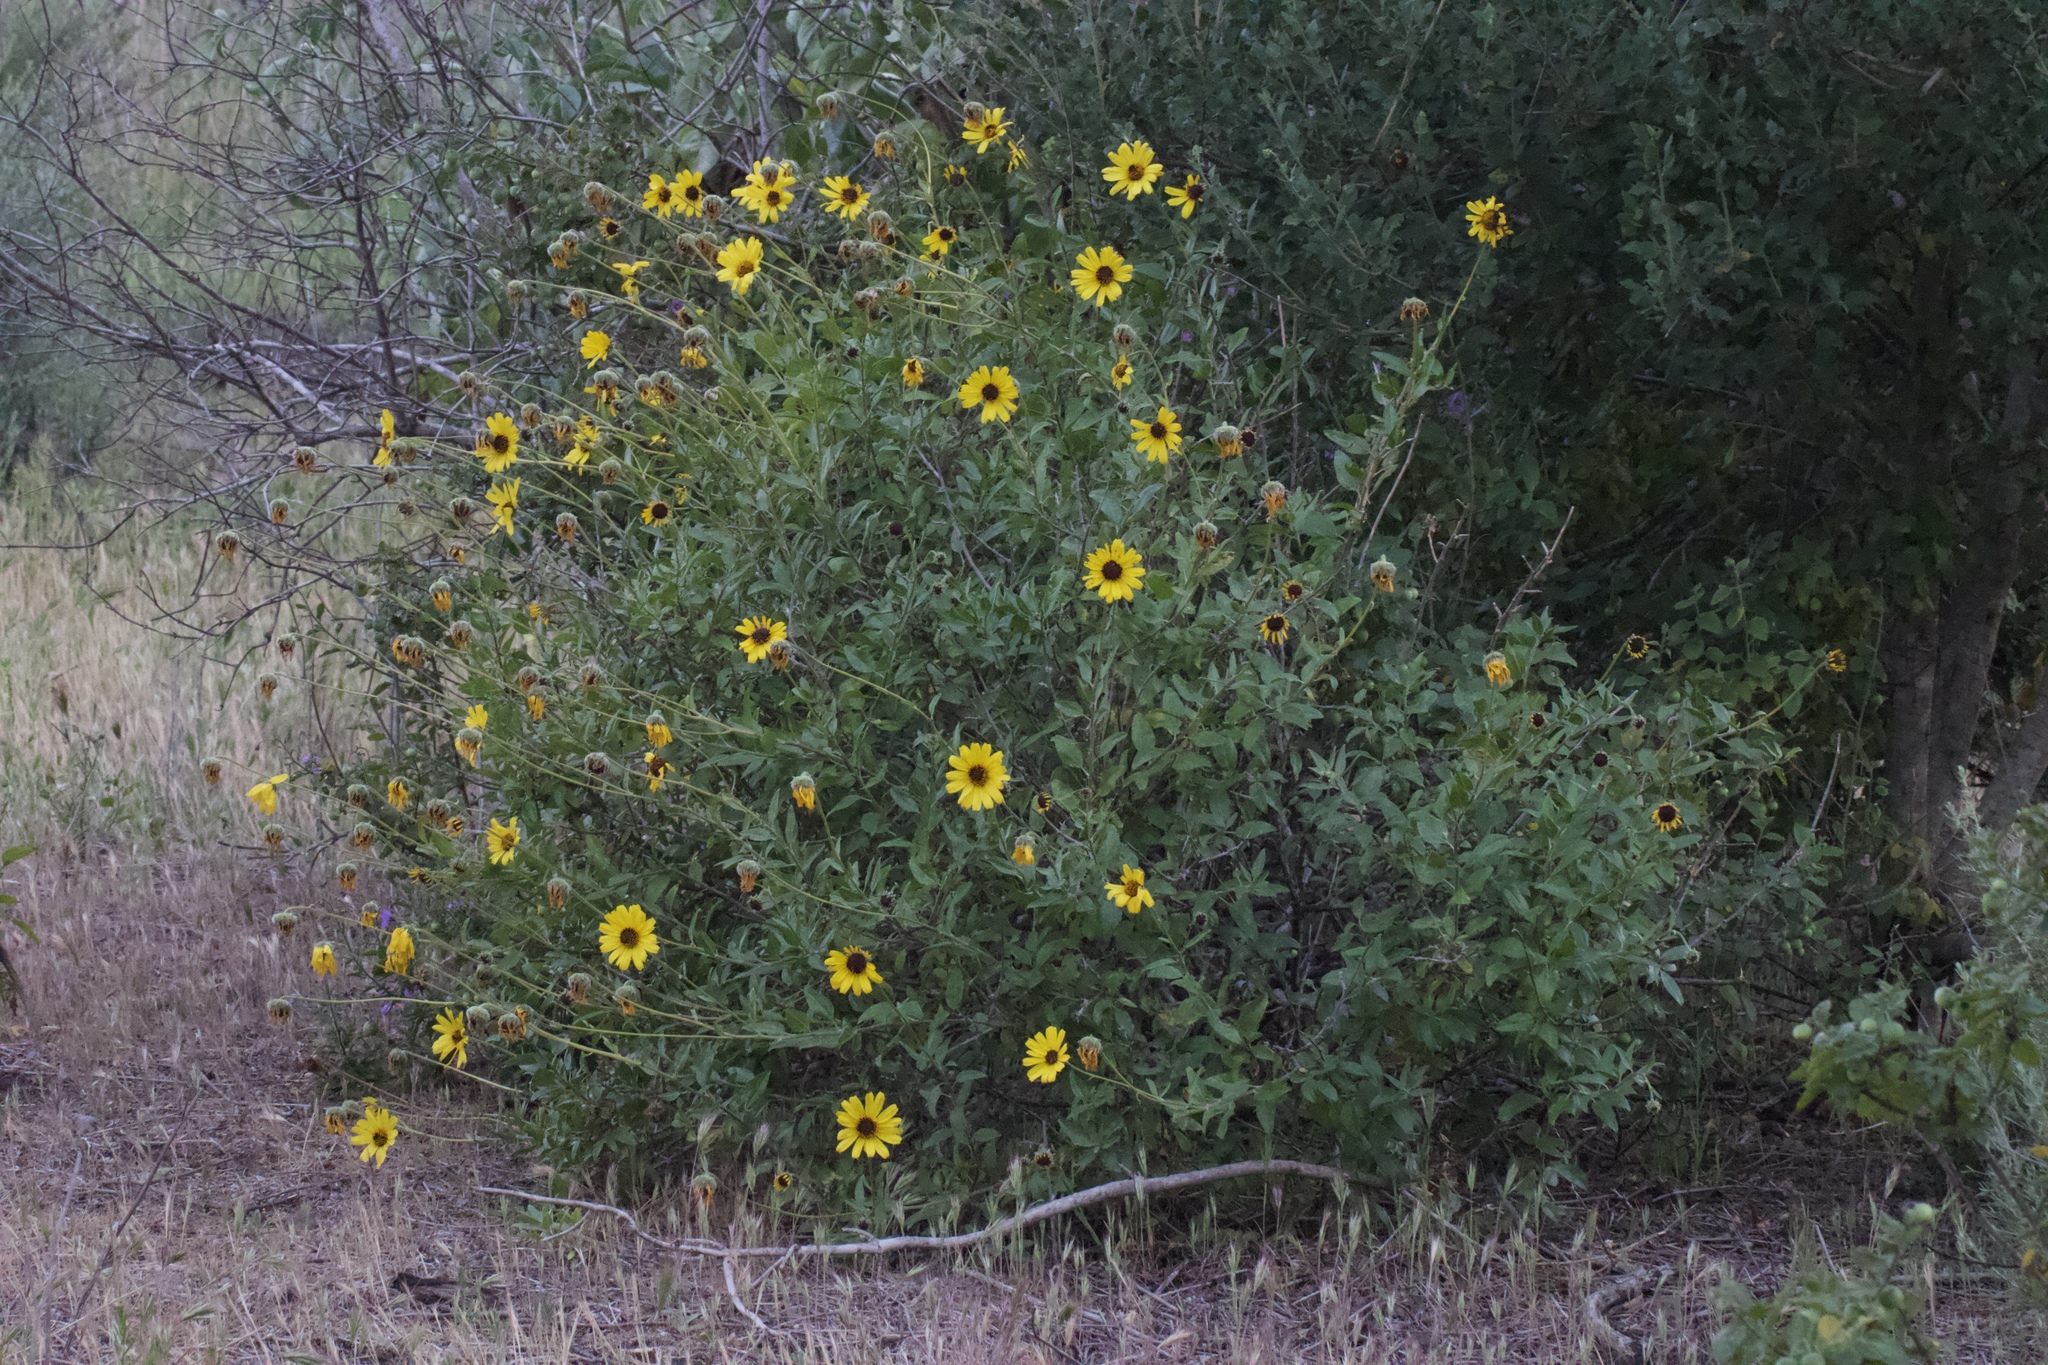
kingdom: Plantae
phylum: Tracheophyta
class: Magnoliopsida
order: Asterales
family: Asteraceae
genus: Encelia
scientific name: Encelia californica
